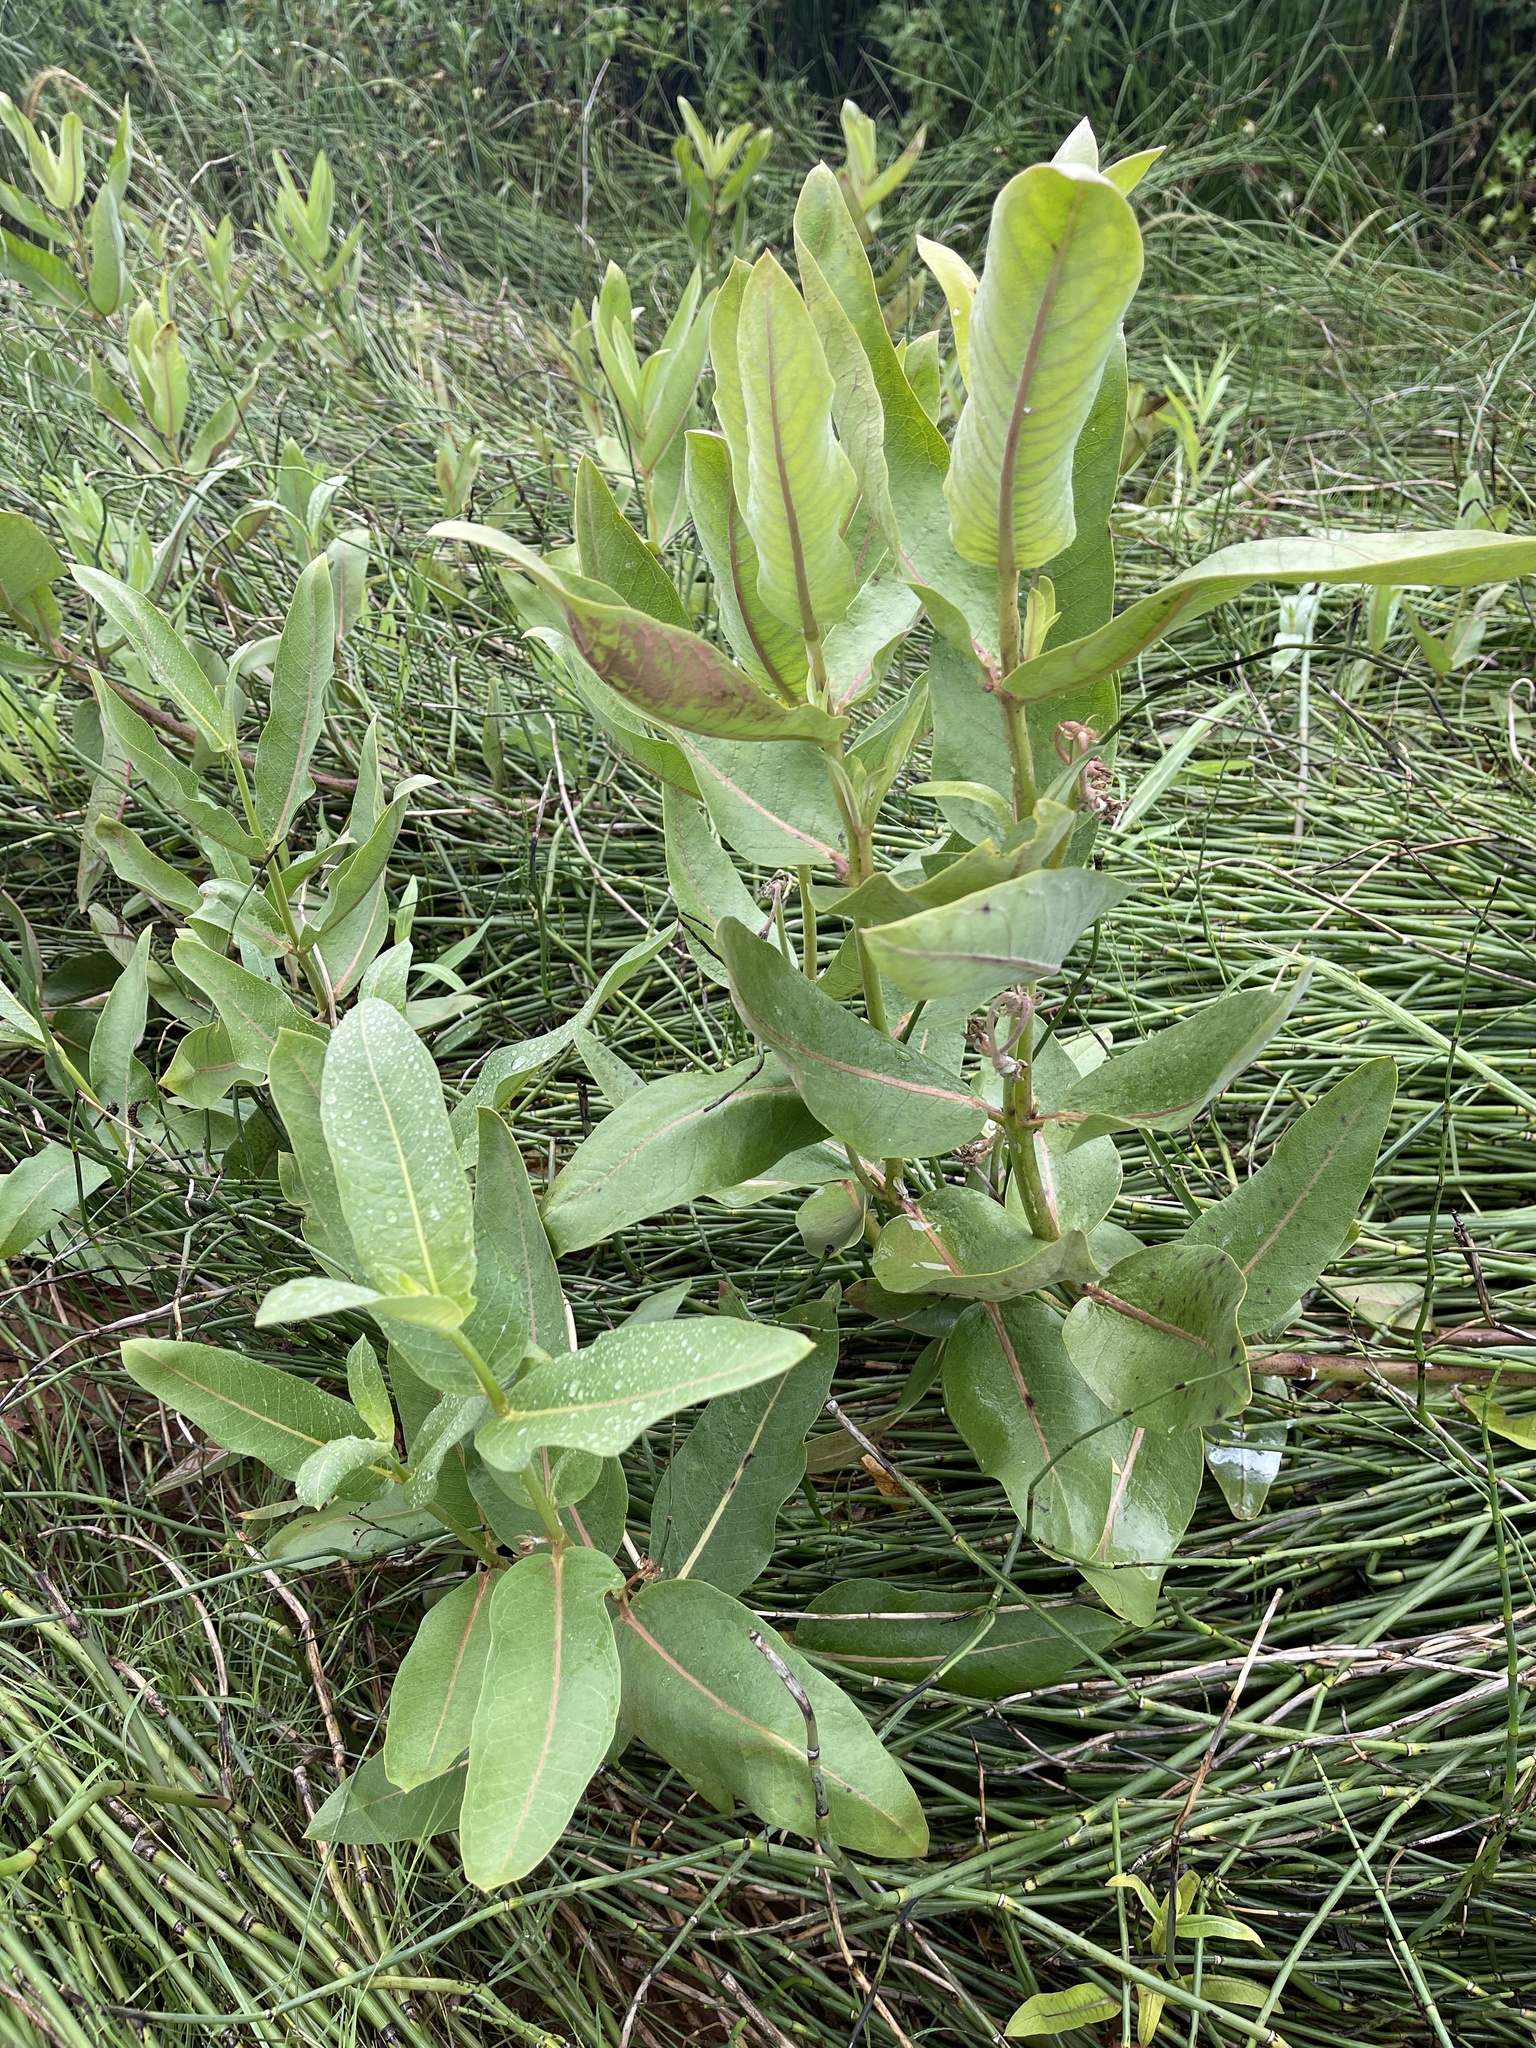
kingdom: Plantae
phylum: Tracheophyta
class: Magnoliopsida
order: Gentianales
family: Apocynaceae
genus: Asclepias
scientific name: Asclepias speciosa
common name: Showy milkweed
